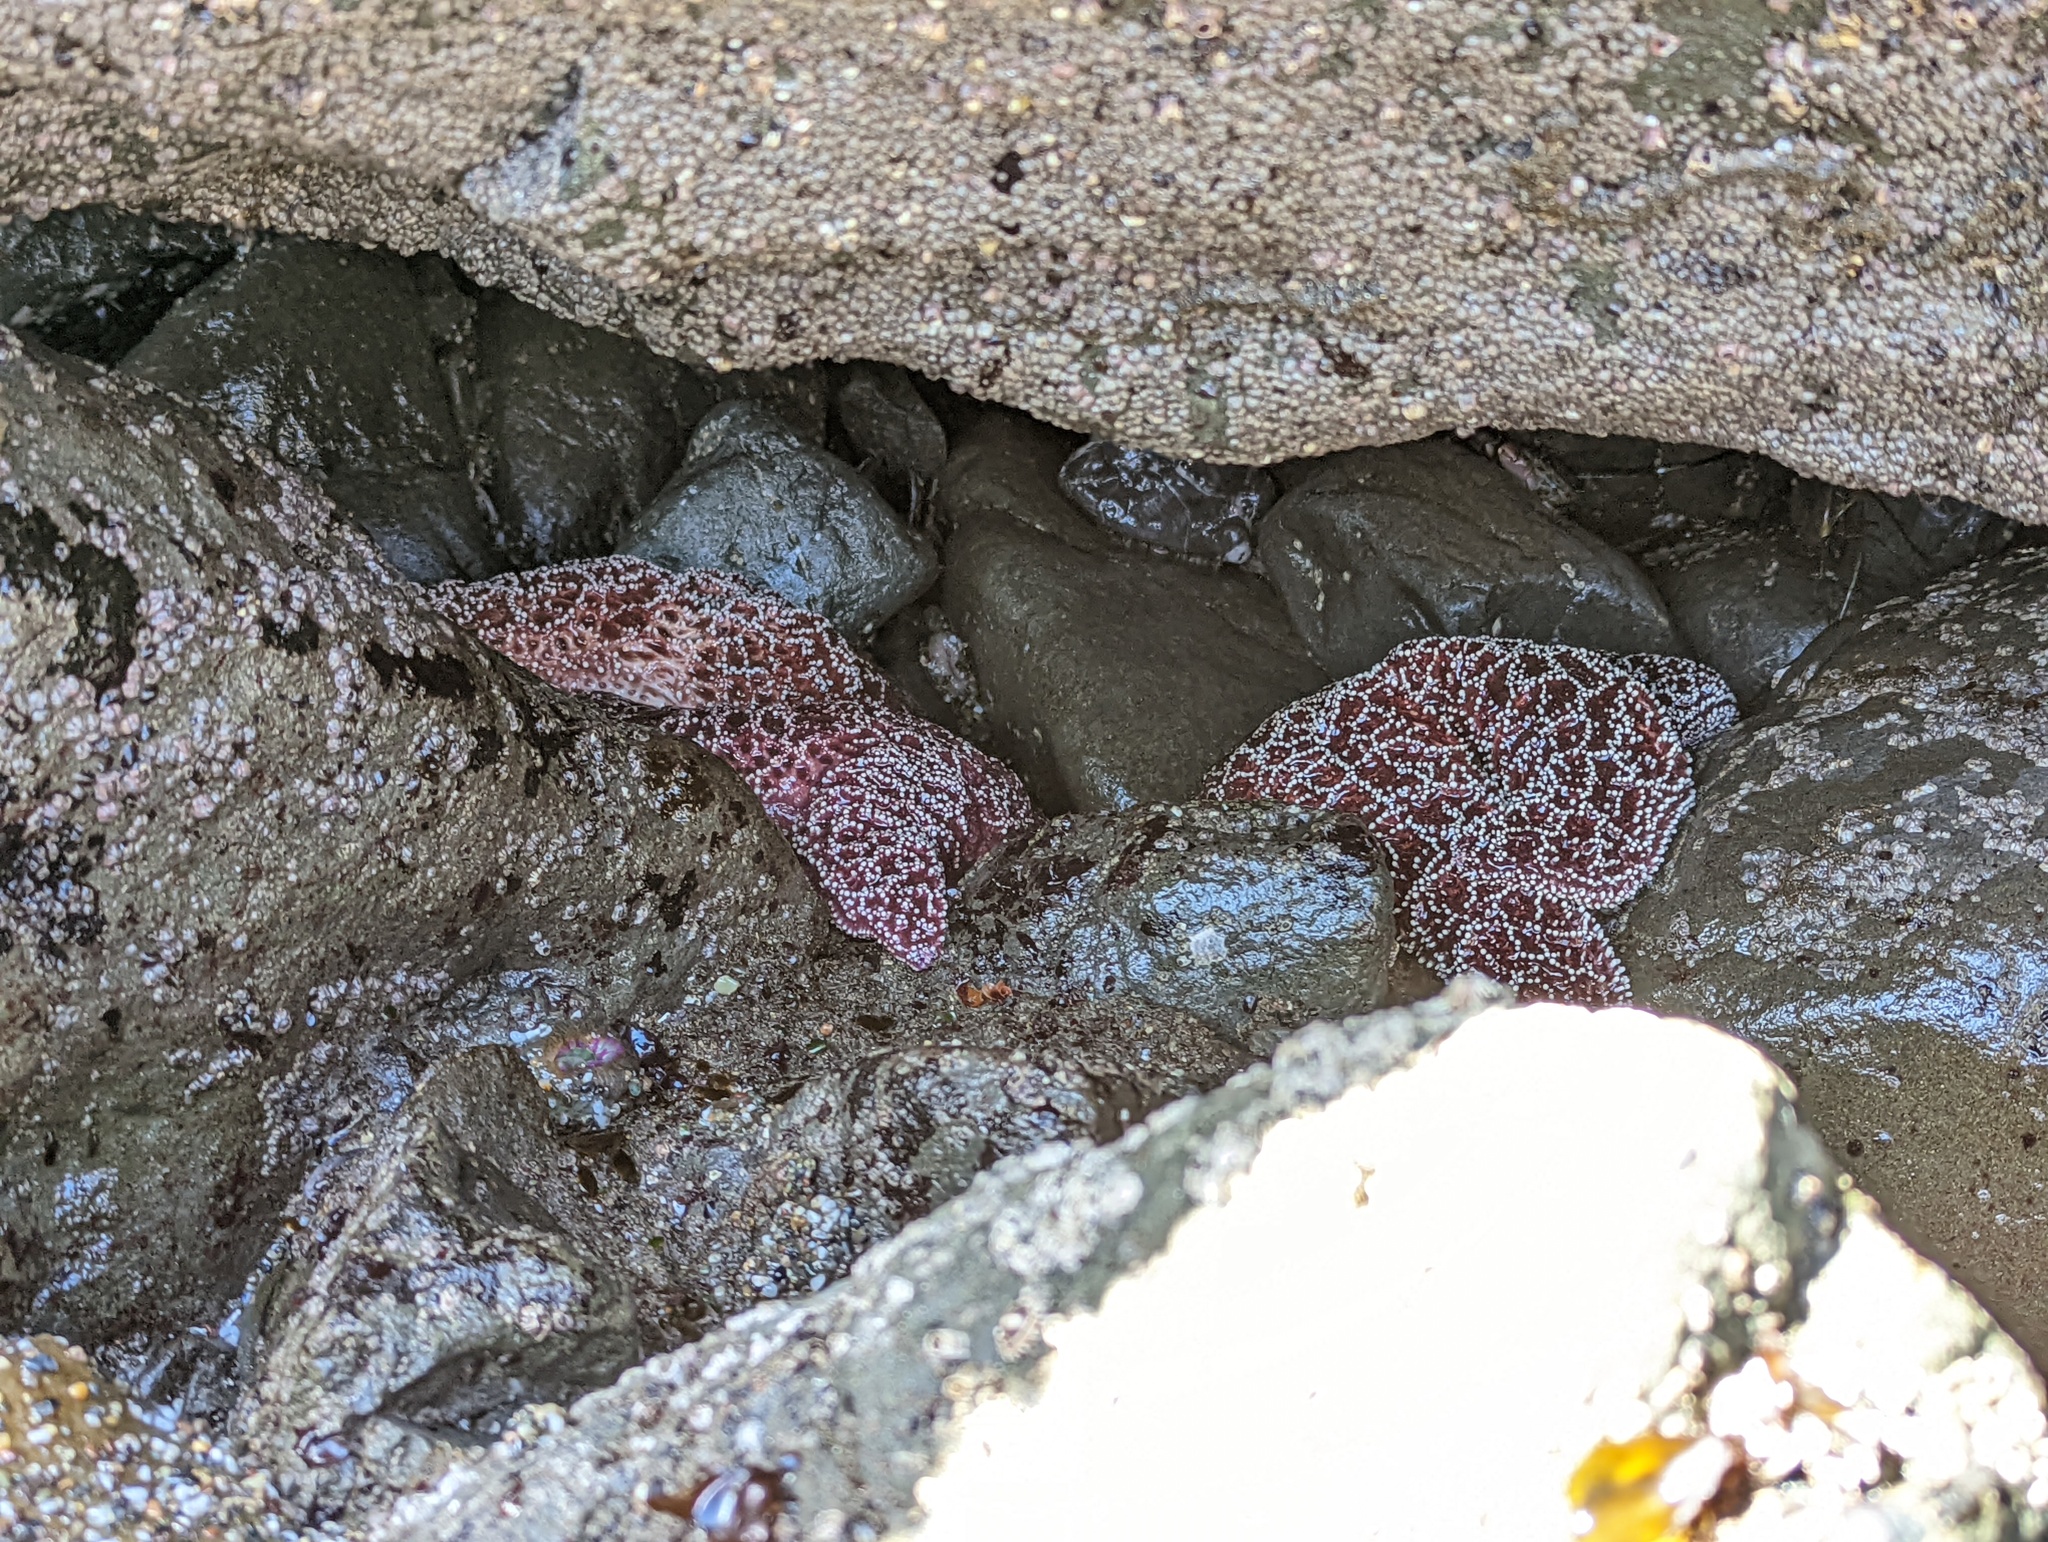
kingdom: Animalia
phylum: Echinodermata
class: Asteroidea
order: Forcipulatida
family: Asteriidae
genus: Pisaster
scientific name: Pisaster ochraceus
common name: Ochre stars
